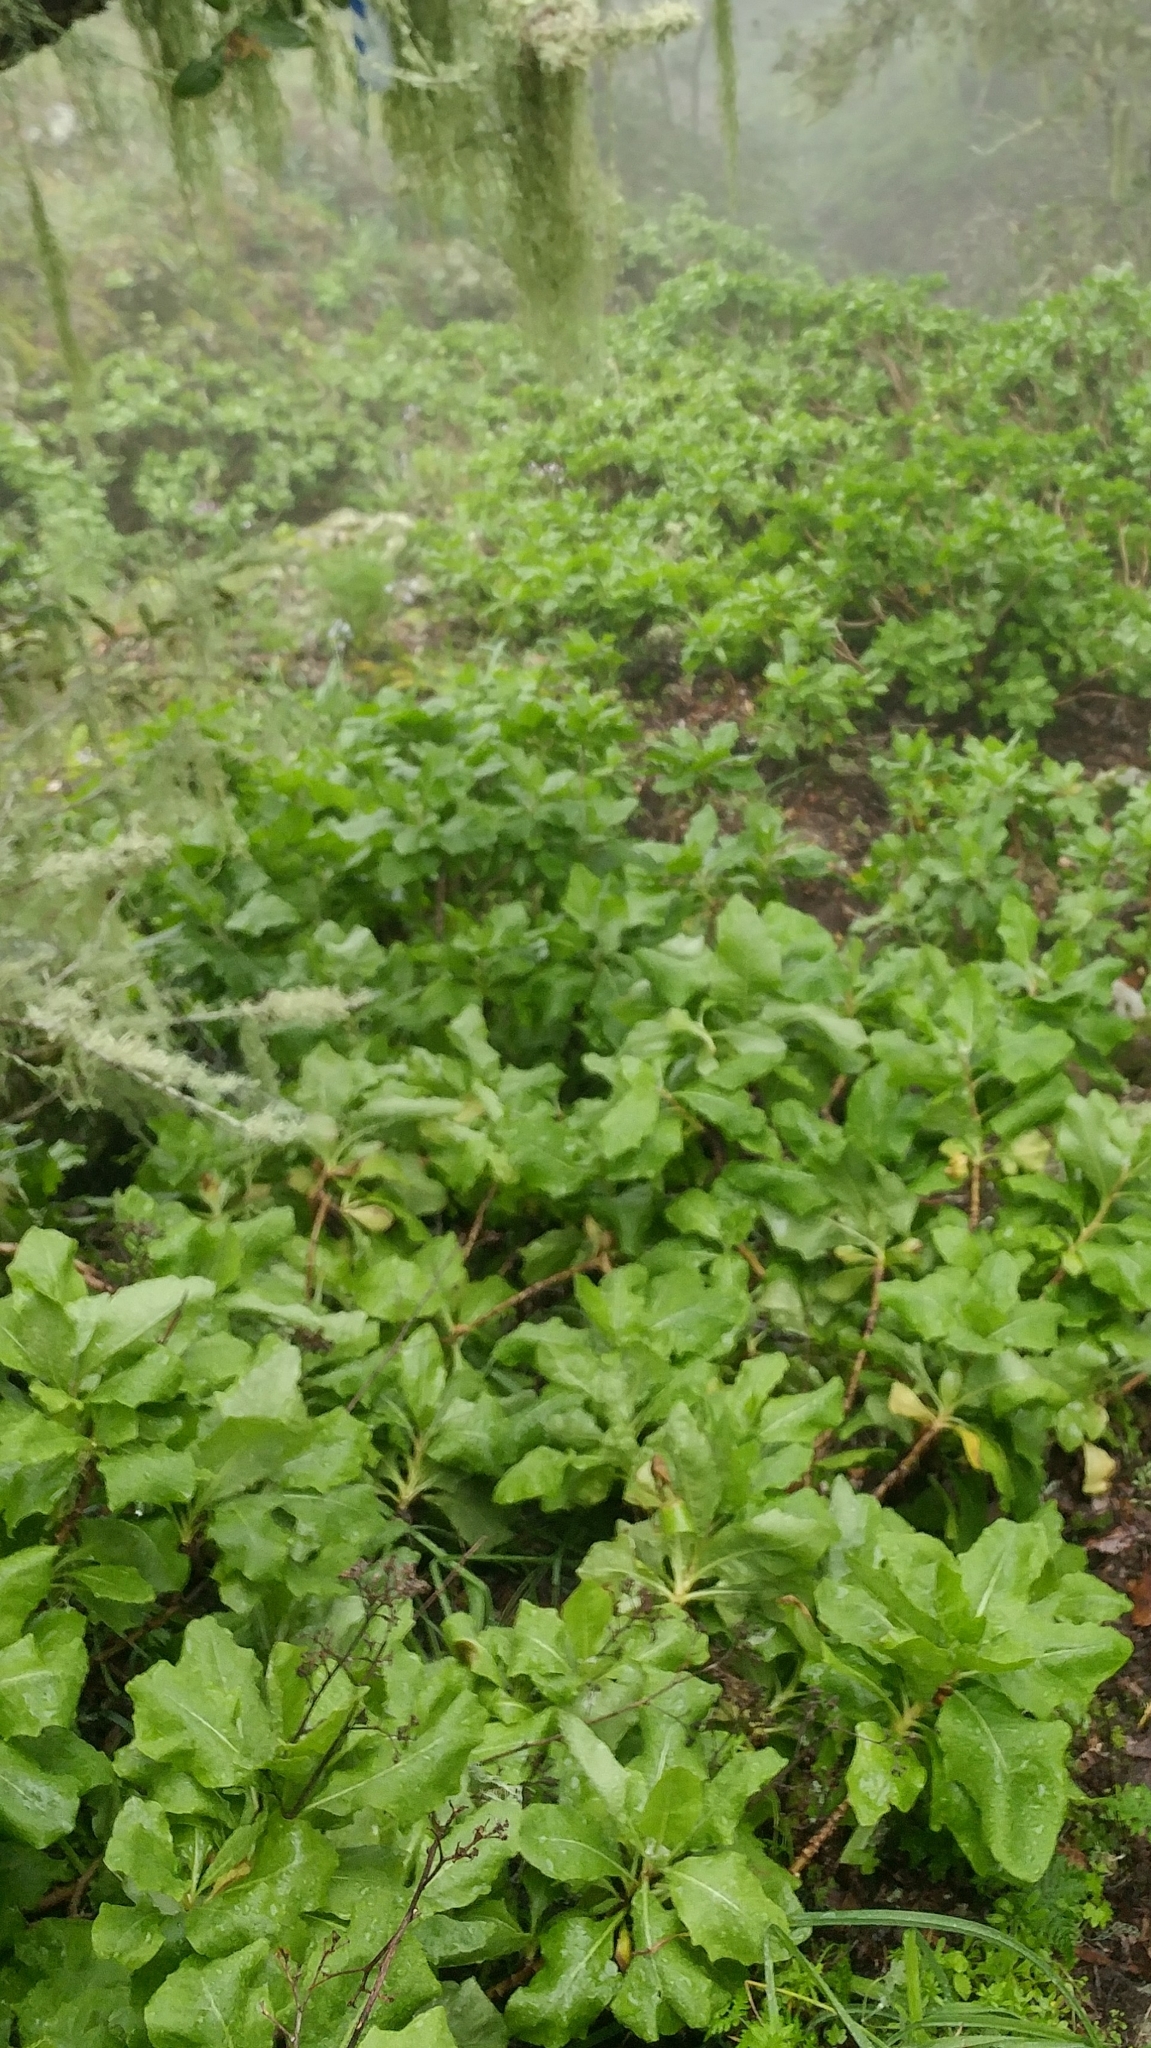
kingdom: Plantae
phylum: Tracheophyta
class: Magnoliopsida
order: Asterales
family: Asteraceae
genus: Munzothamnus
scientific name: Munzothamnus blairii
